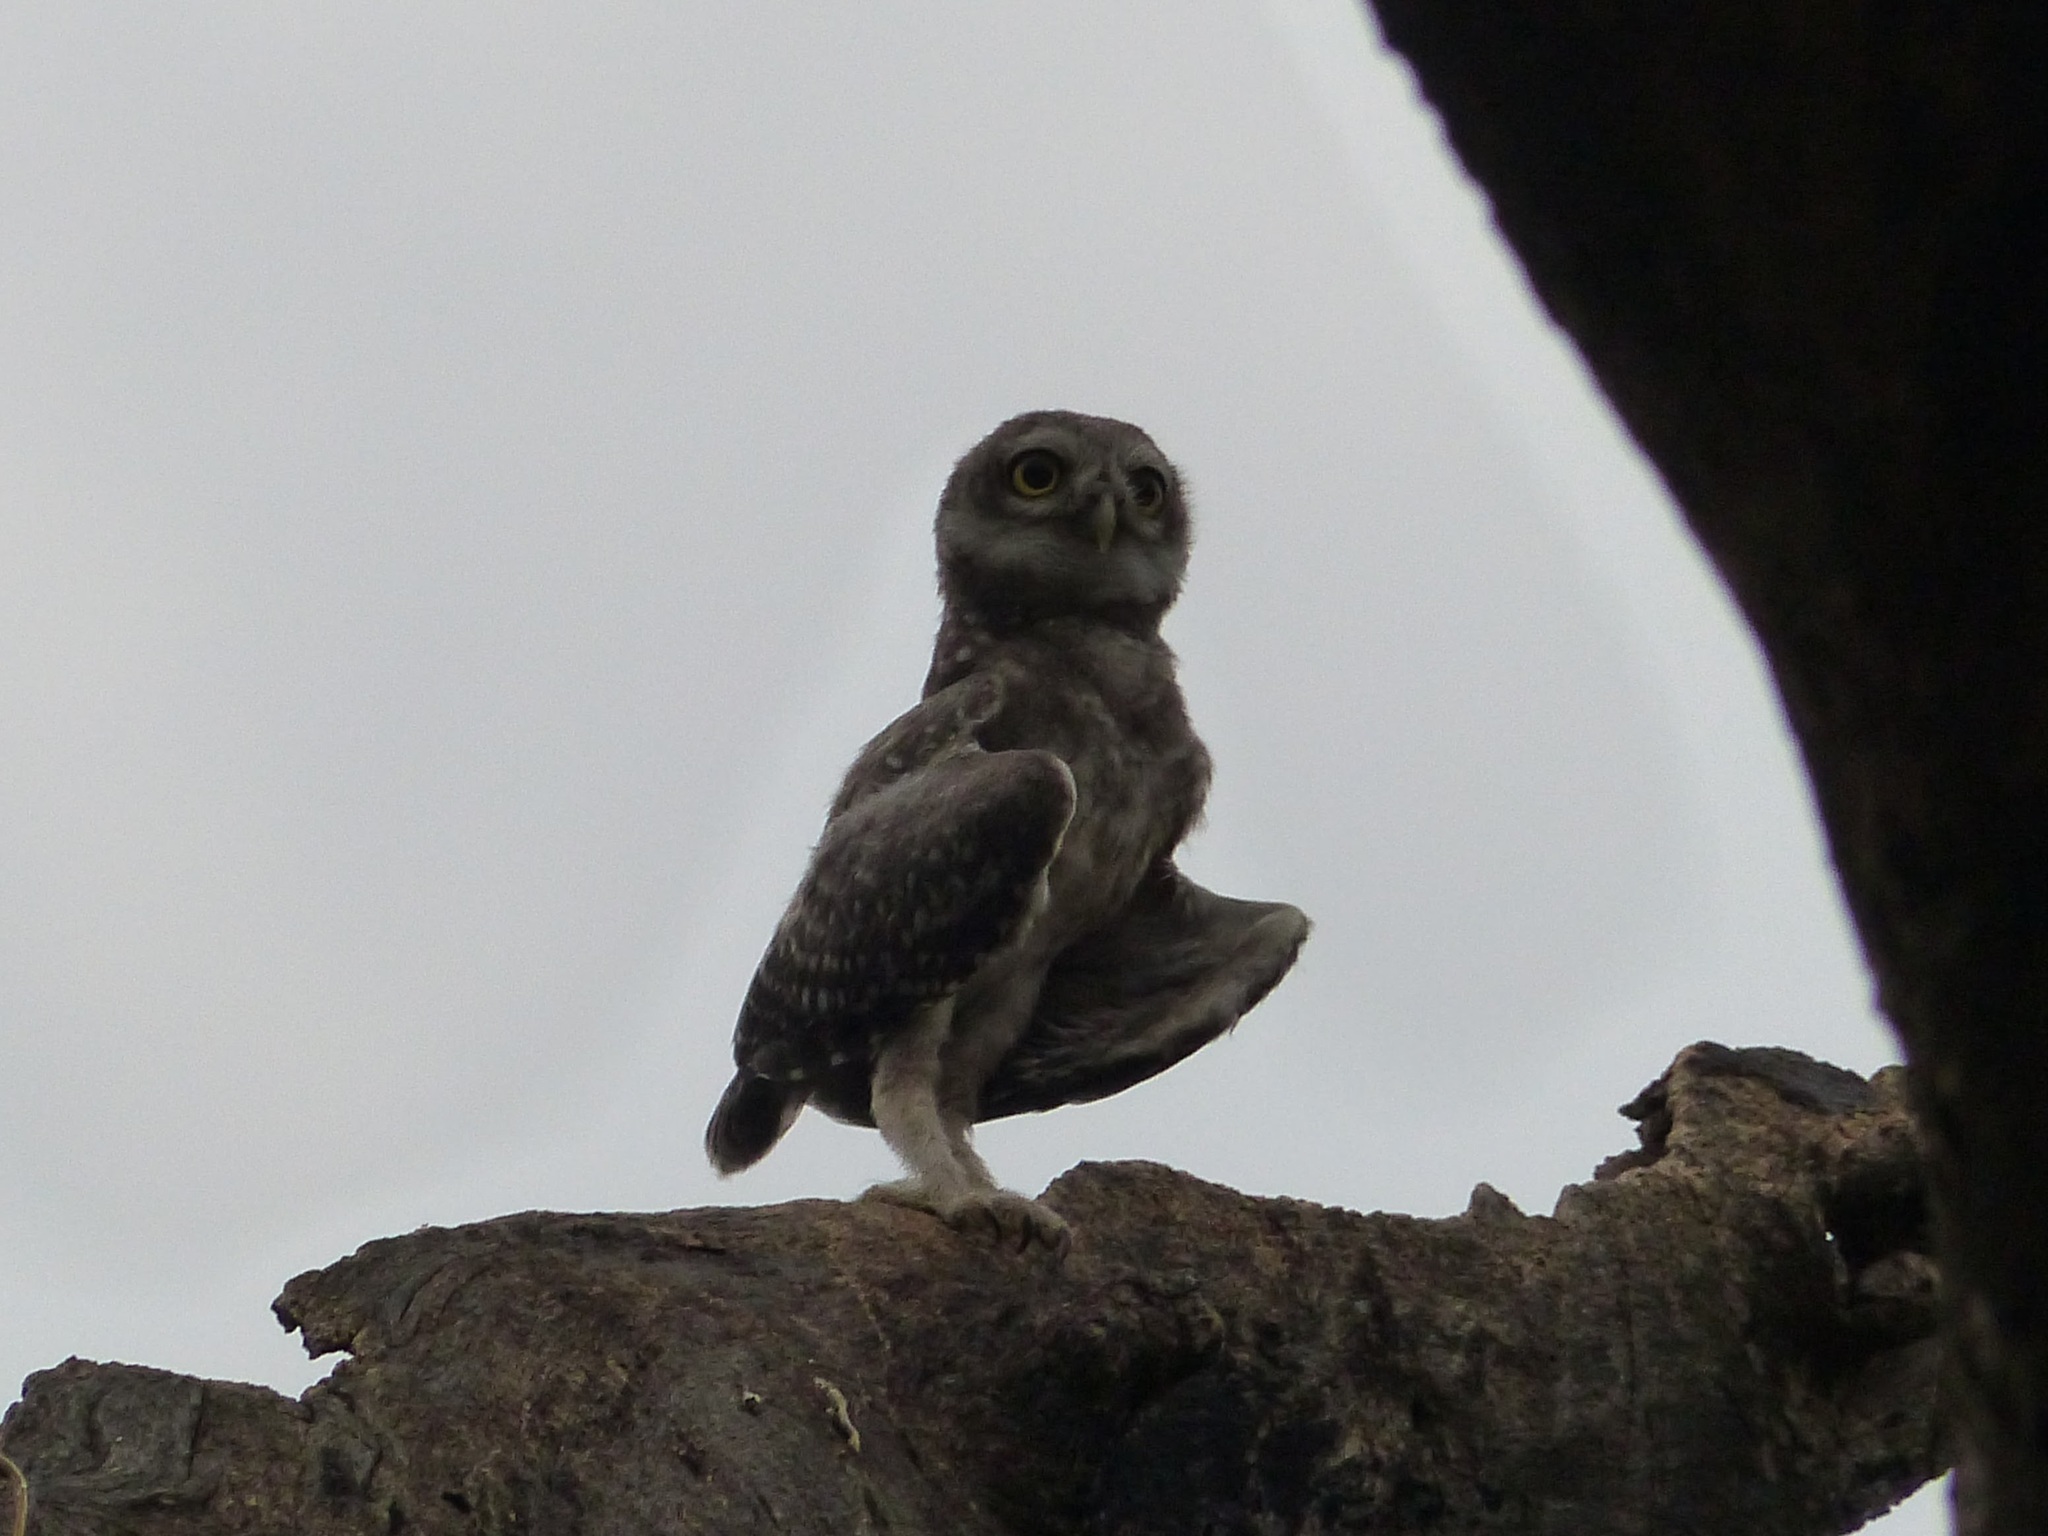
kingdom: Animalia
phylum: Chordata
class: Aves
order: Strigiformes
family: Strigidae
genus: Athene
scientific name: Athene brama
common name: Spotted owlet
